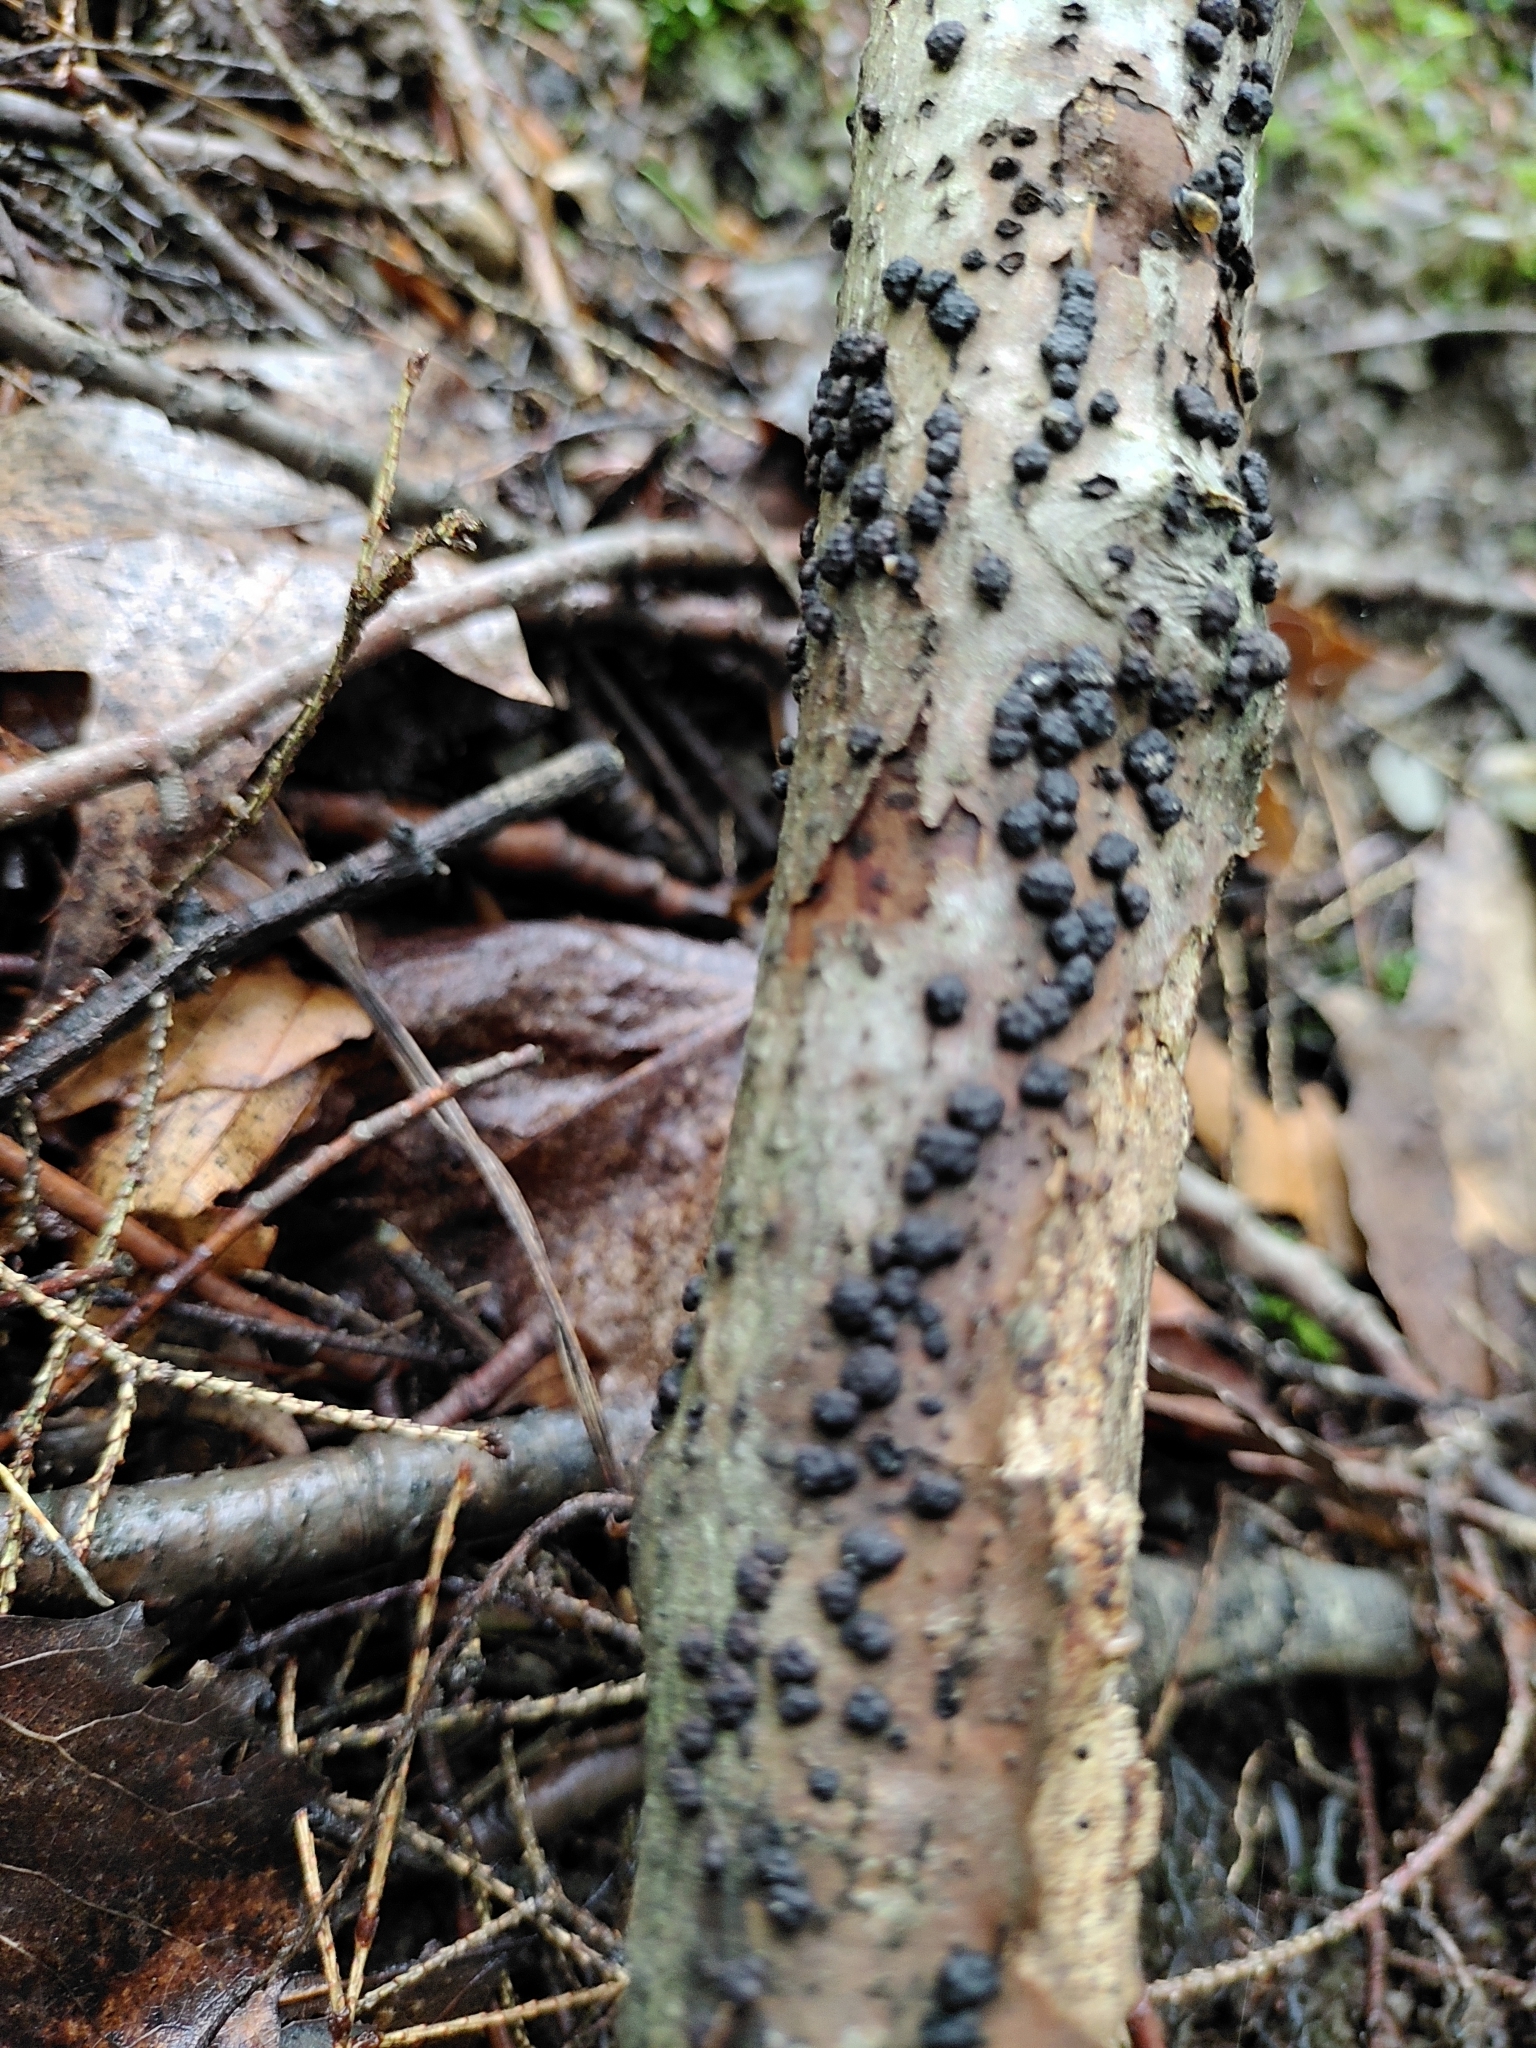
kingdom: Fungi
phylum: Ascomycota
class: Sordariomycetes
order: Xylariales
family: Hypoxylaceae
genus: Jackrogersella
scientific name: Jackrogersella cohaerens
